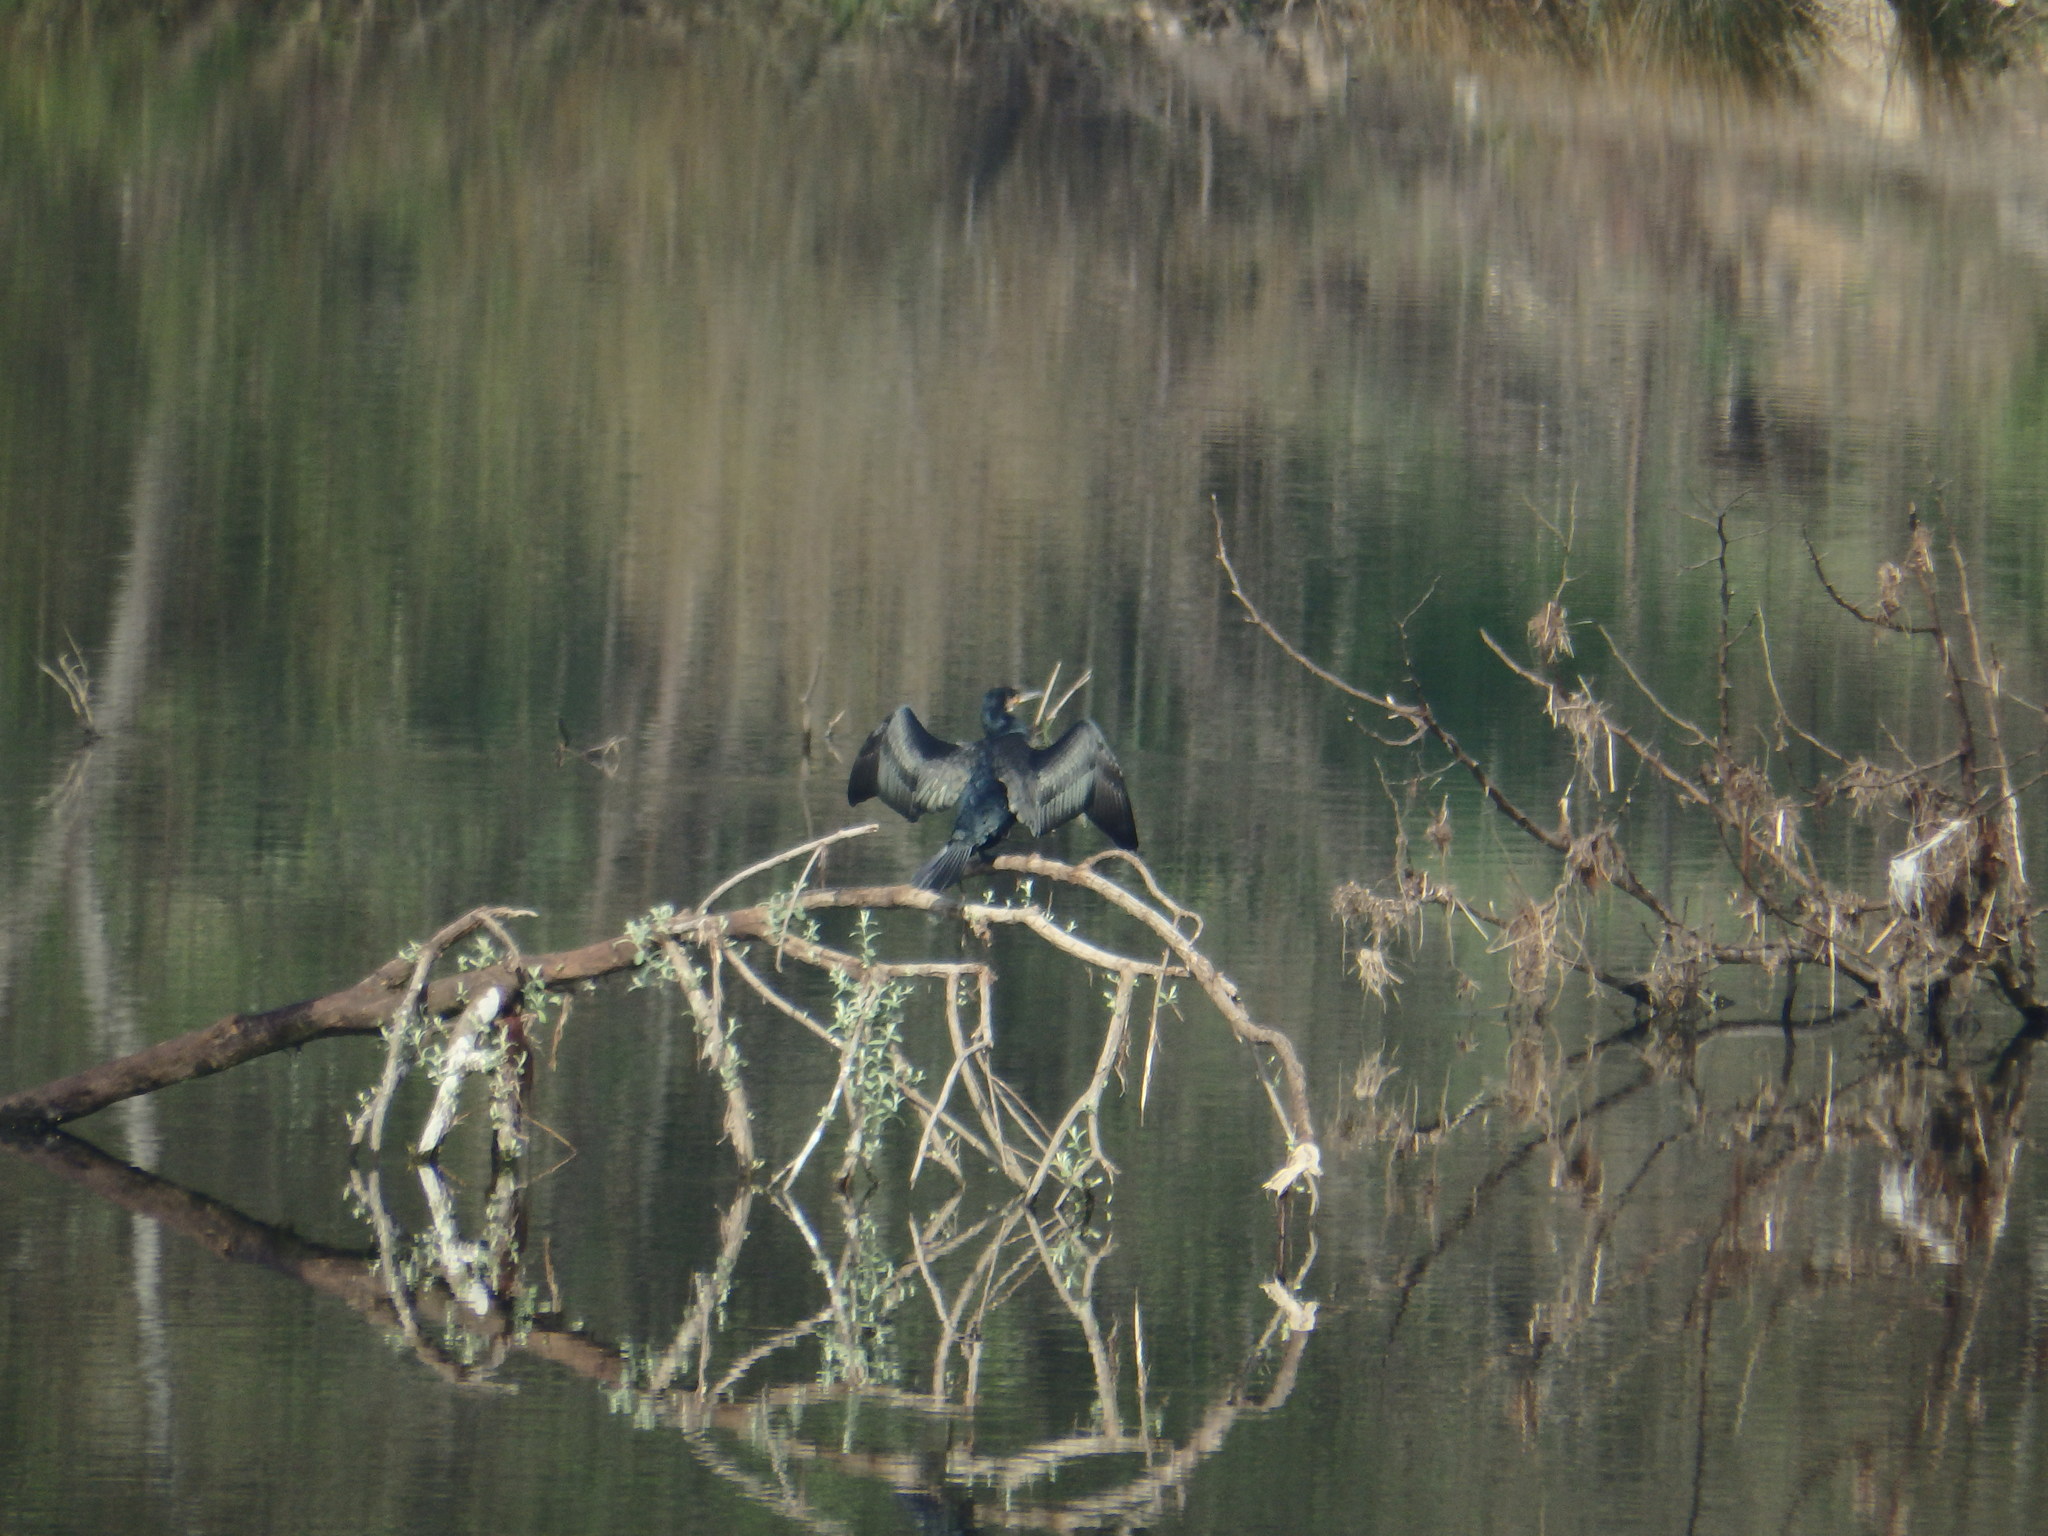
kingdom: Animalia
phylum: Chordata
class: Aves
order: Suliformes
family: Phalacrocoracidae
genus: Phalacrocorax
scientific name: Phalacrocorax carbo
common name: Great cormorant
